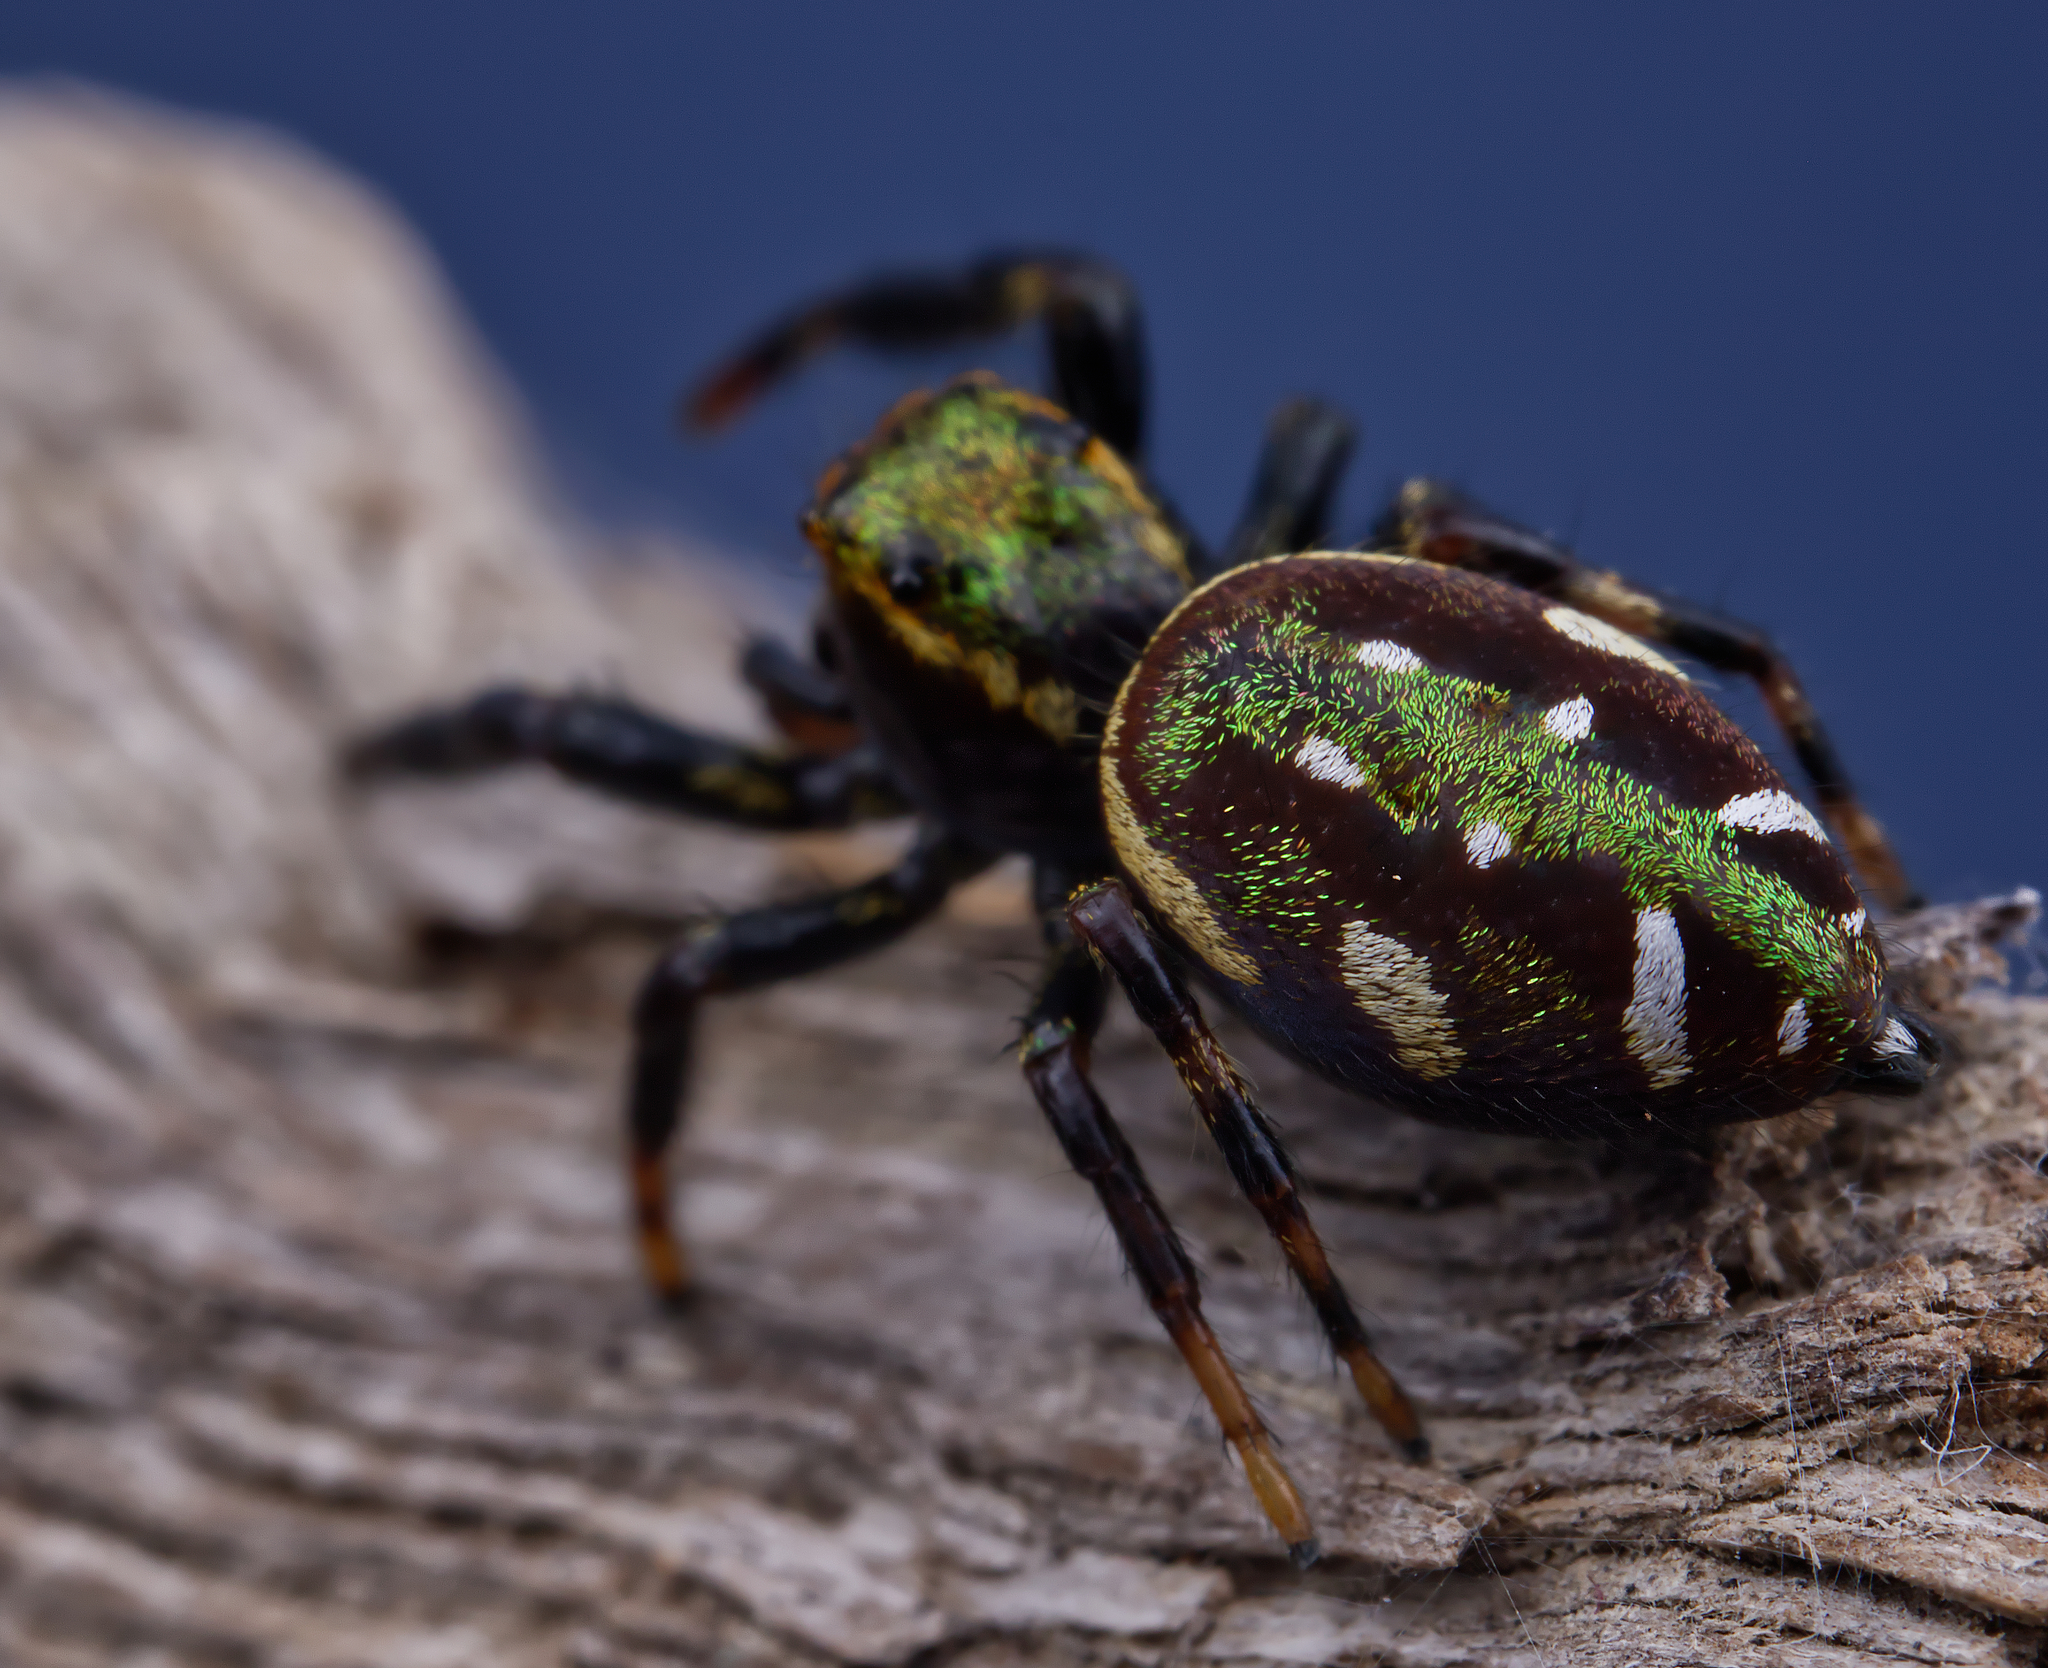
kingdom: Animalia
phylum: Arthropoda
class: Arachnida
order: Araneae
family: Salticidae
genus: Paraphidippus
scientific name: Paraphidippus aurantius
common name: Jumping spiders
